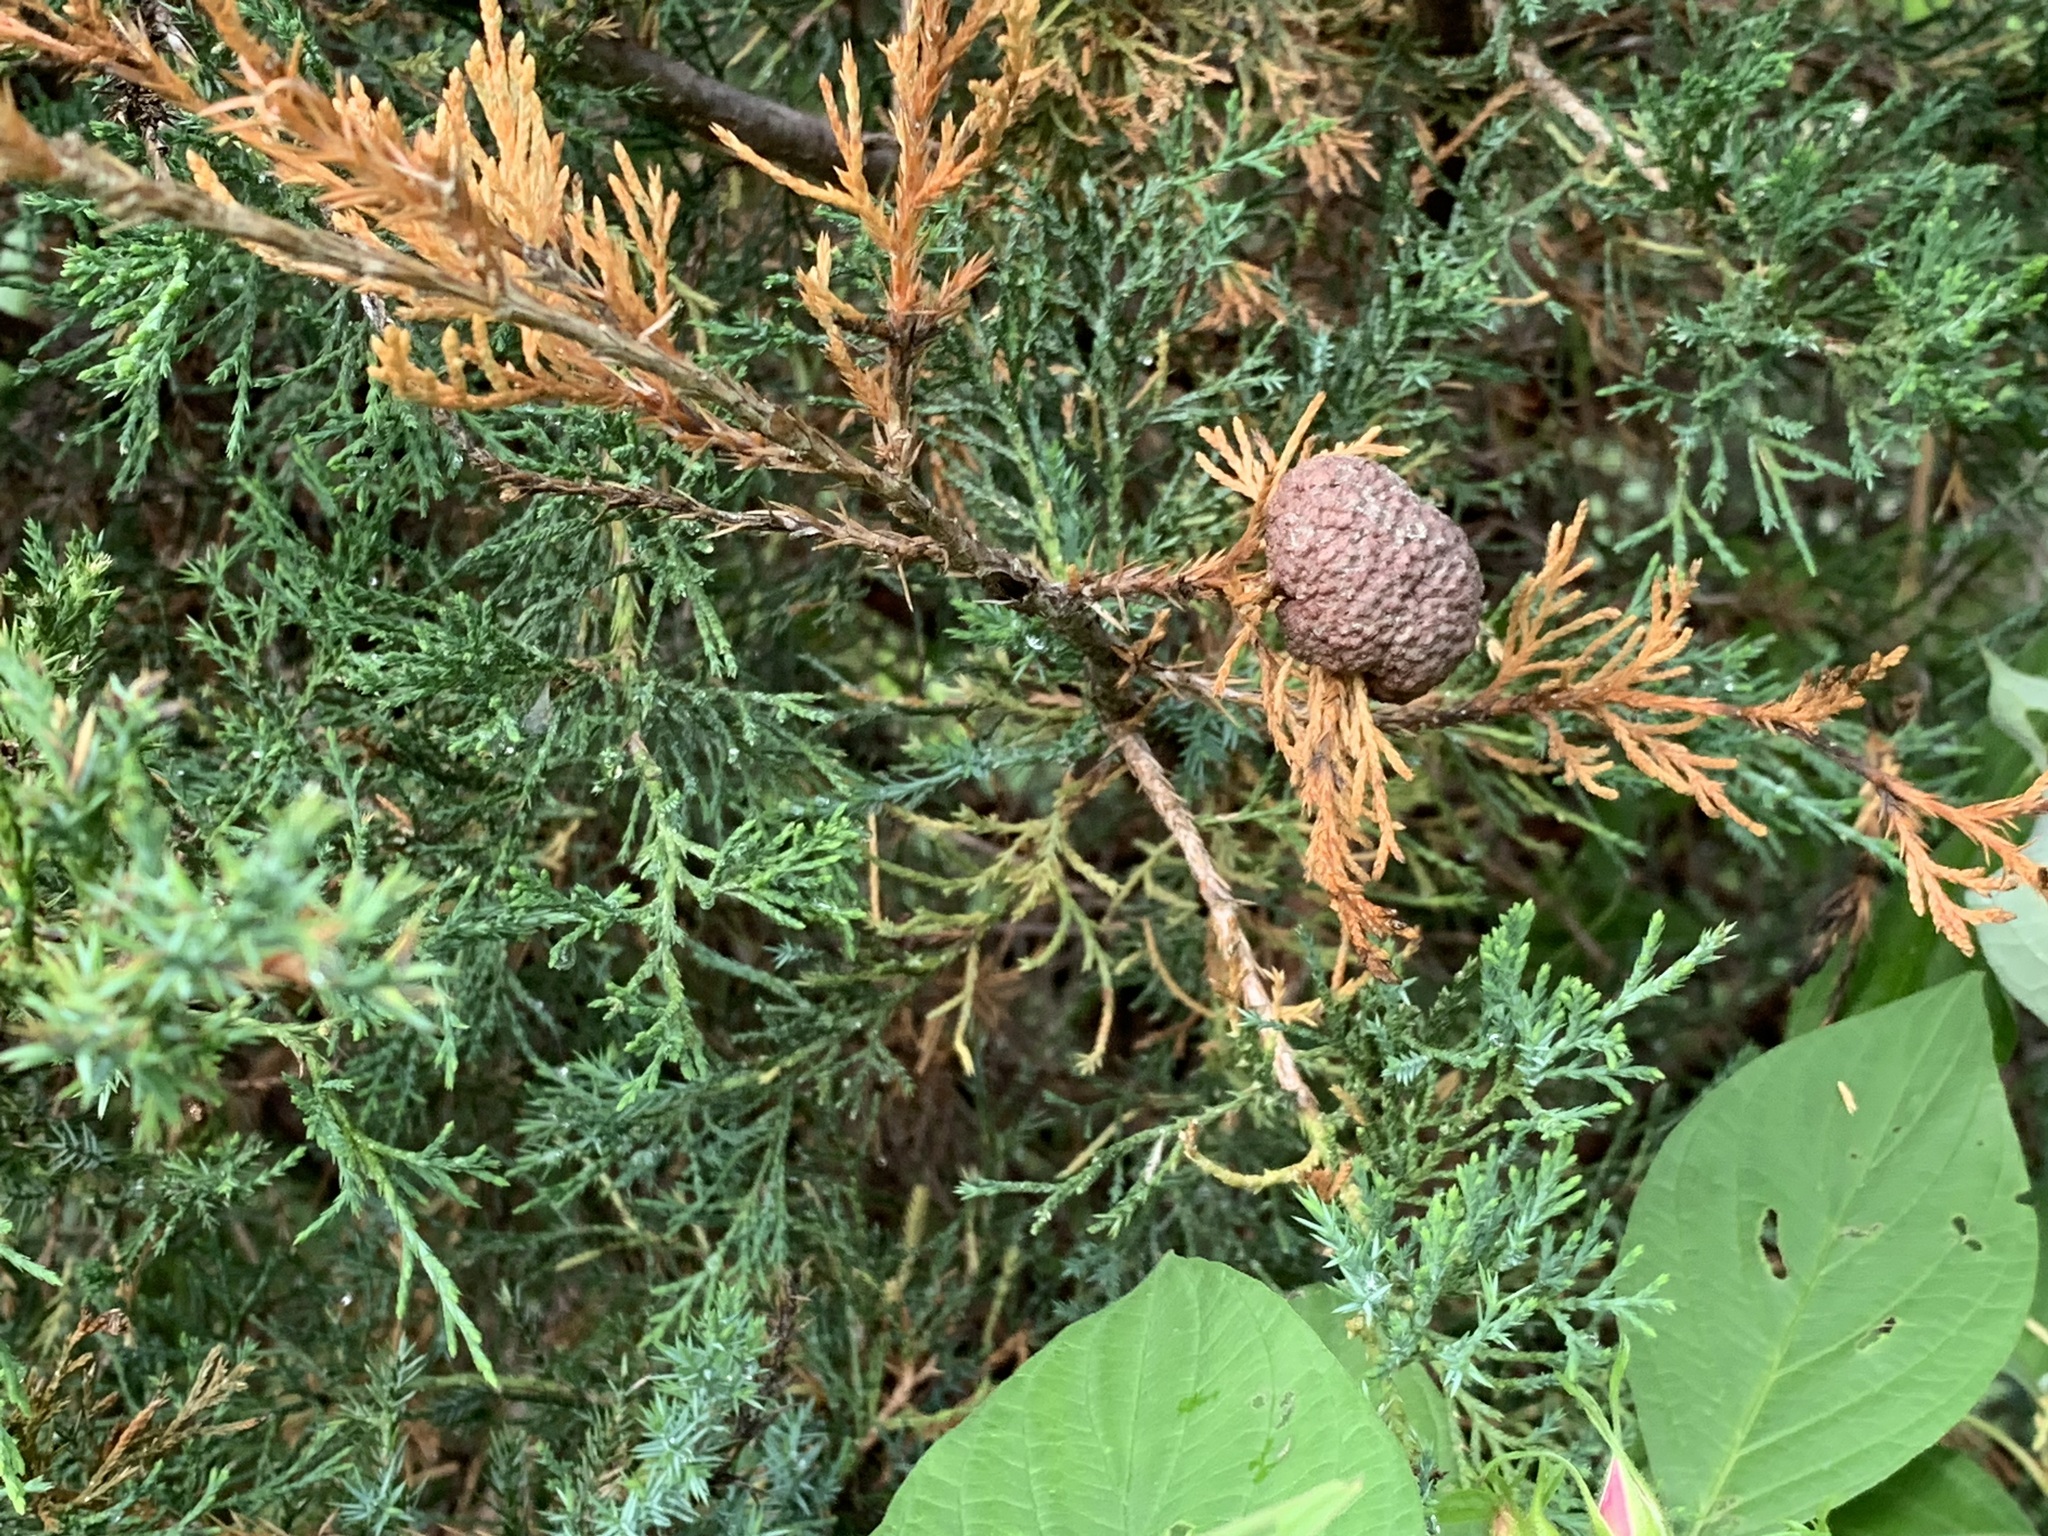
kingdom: Fungi
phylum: Basidiomycota
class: Pucciniomycetes
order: Pucciniales
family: Gymnosporangiaceae
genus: Gymnosporangium
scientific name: Gymnosporangium juniperi-virginianae
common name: Juniper-apple rust
